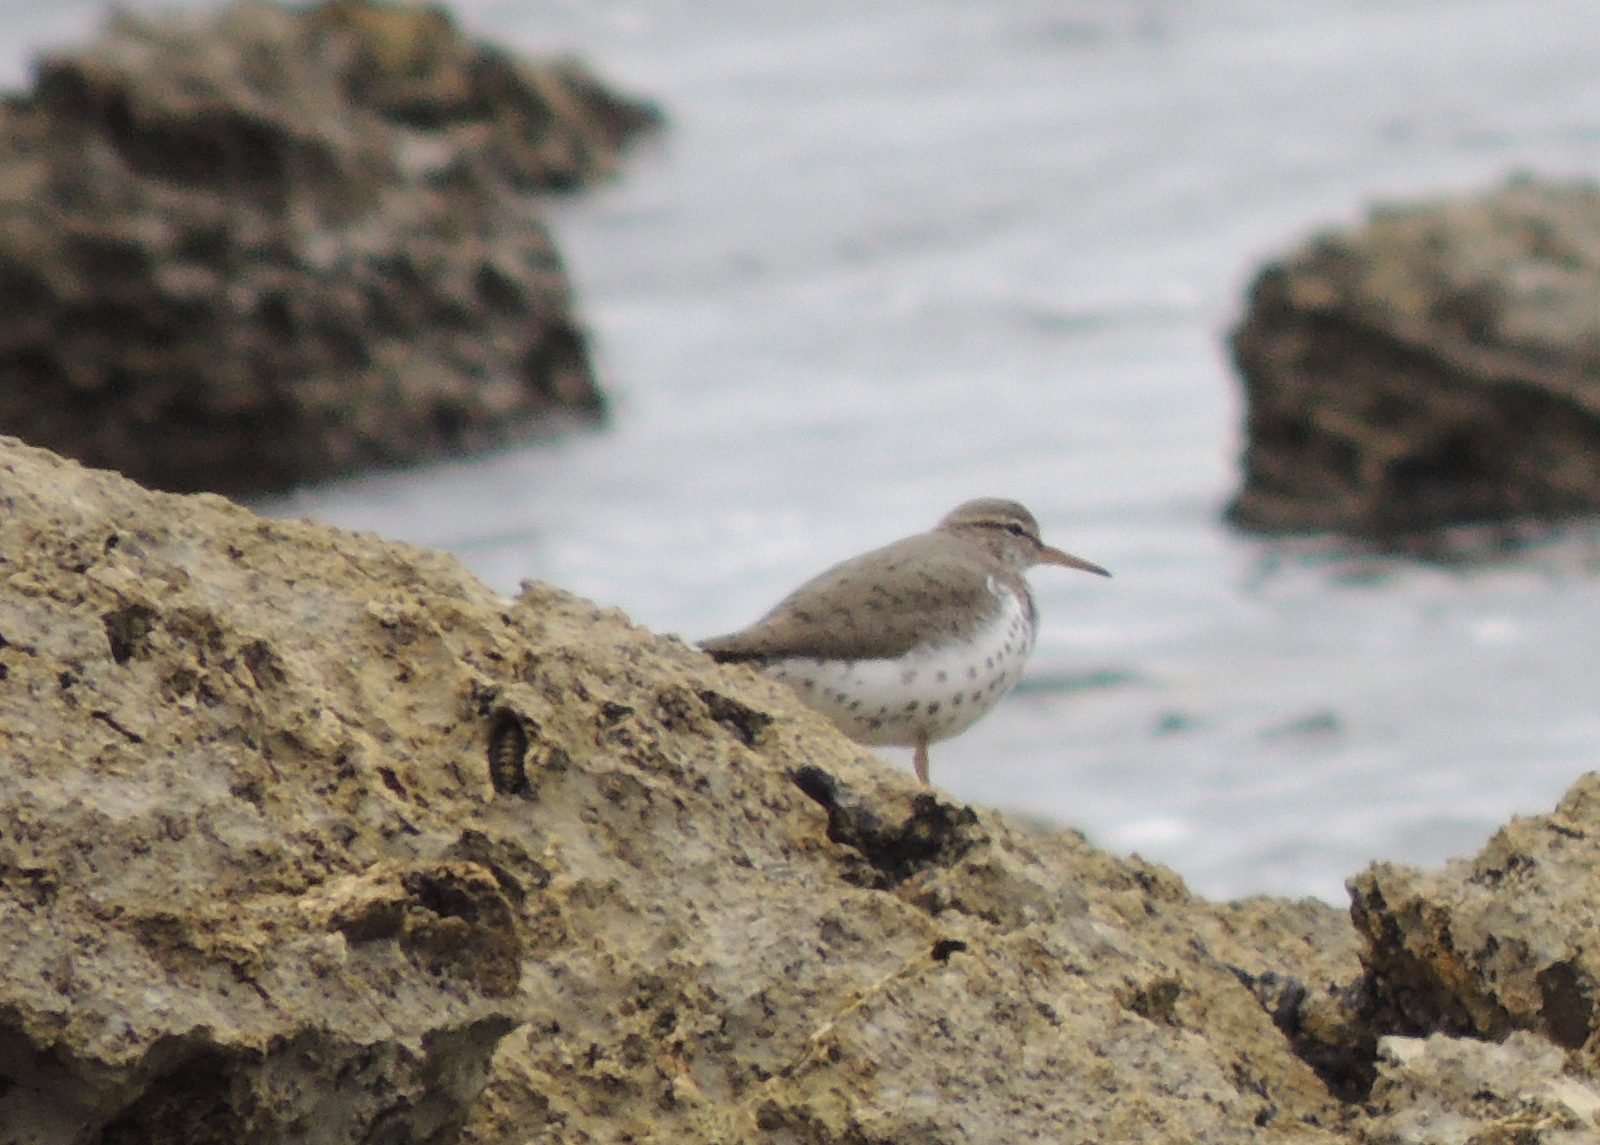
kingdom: Animalia
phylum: Chordata
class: Aves
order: Charadriiformes
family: Scolopacidae
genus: Actitis
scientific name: Actitis macularius
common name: Spotted sandpiper
